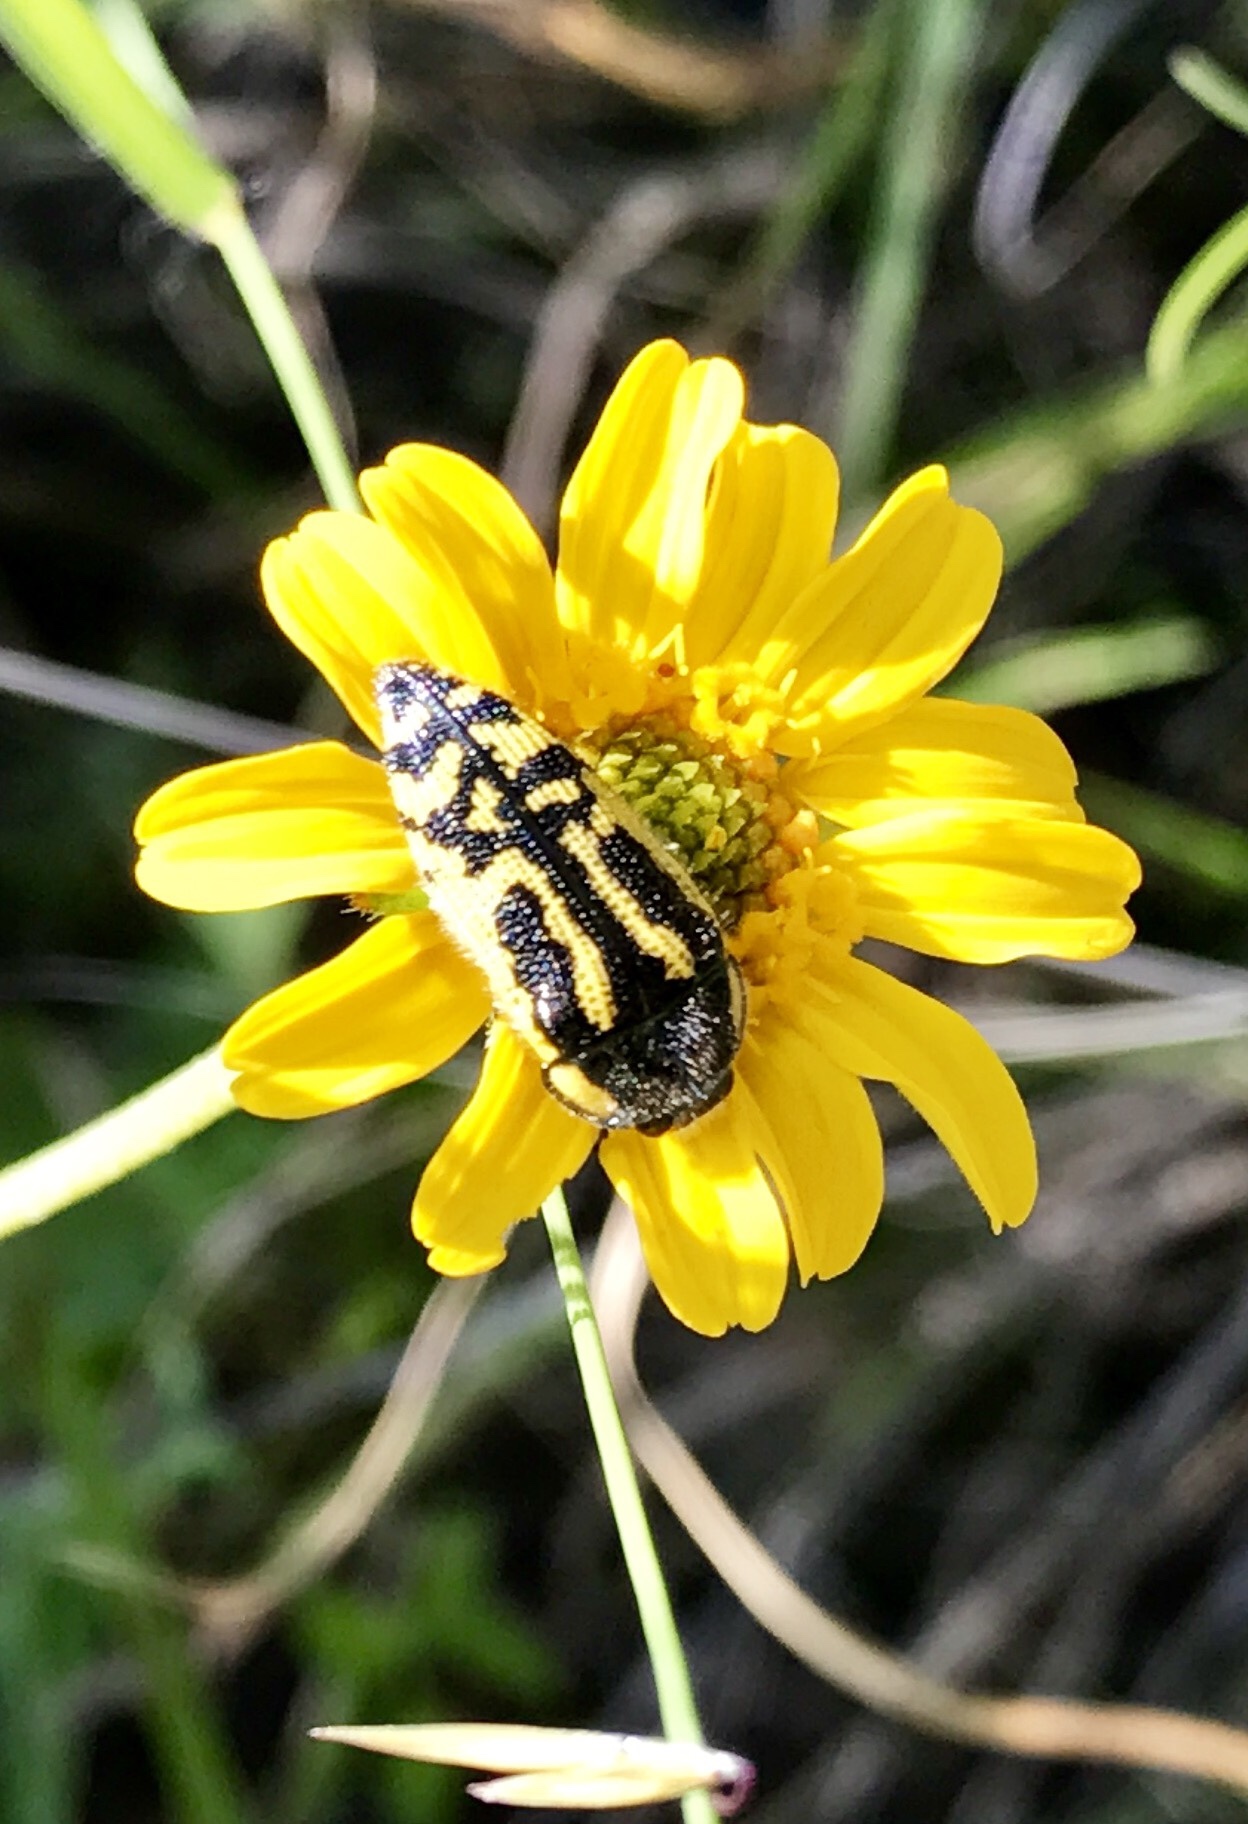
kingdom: Animalia
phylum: Arthropoda
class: Insecta
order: Coleoptera
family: Buprestidae
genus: Acmaeodera
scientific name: Acmaeodera amplicollis
